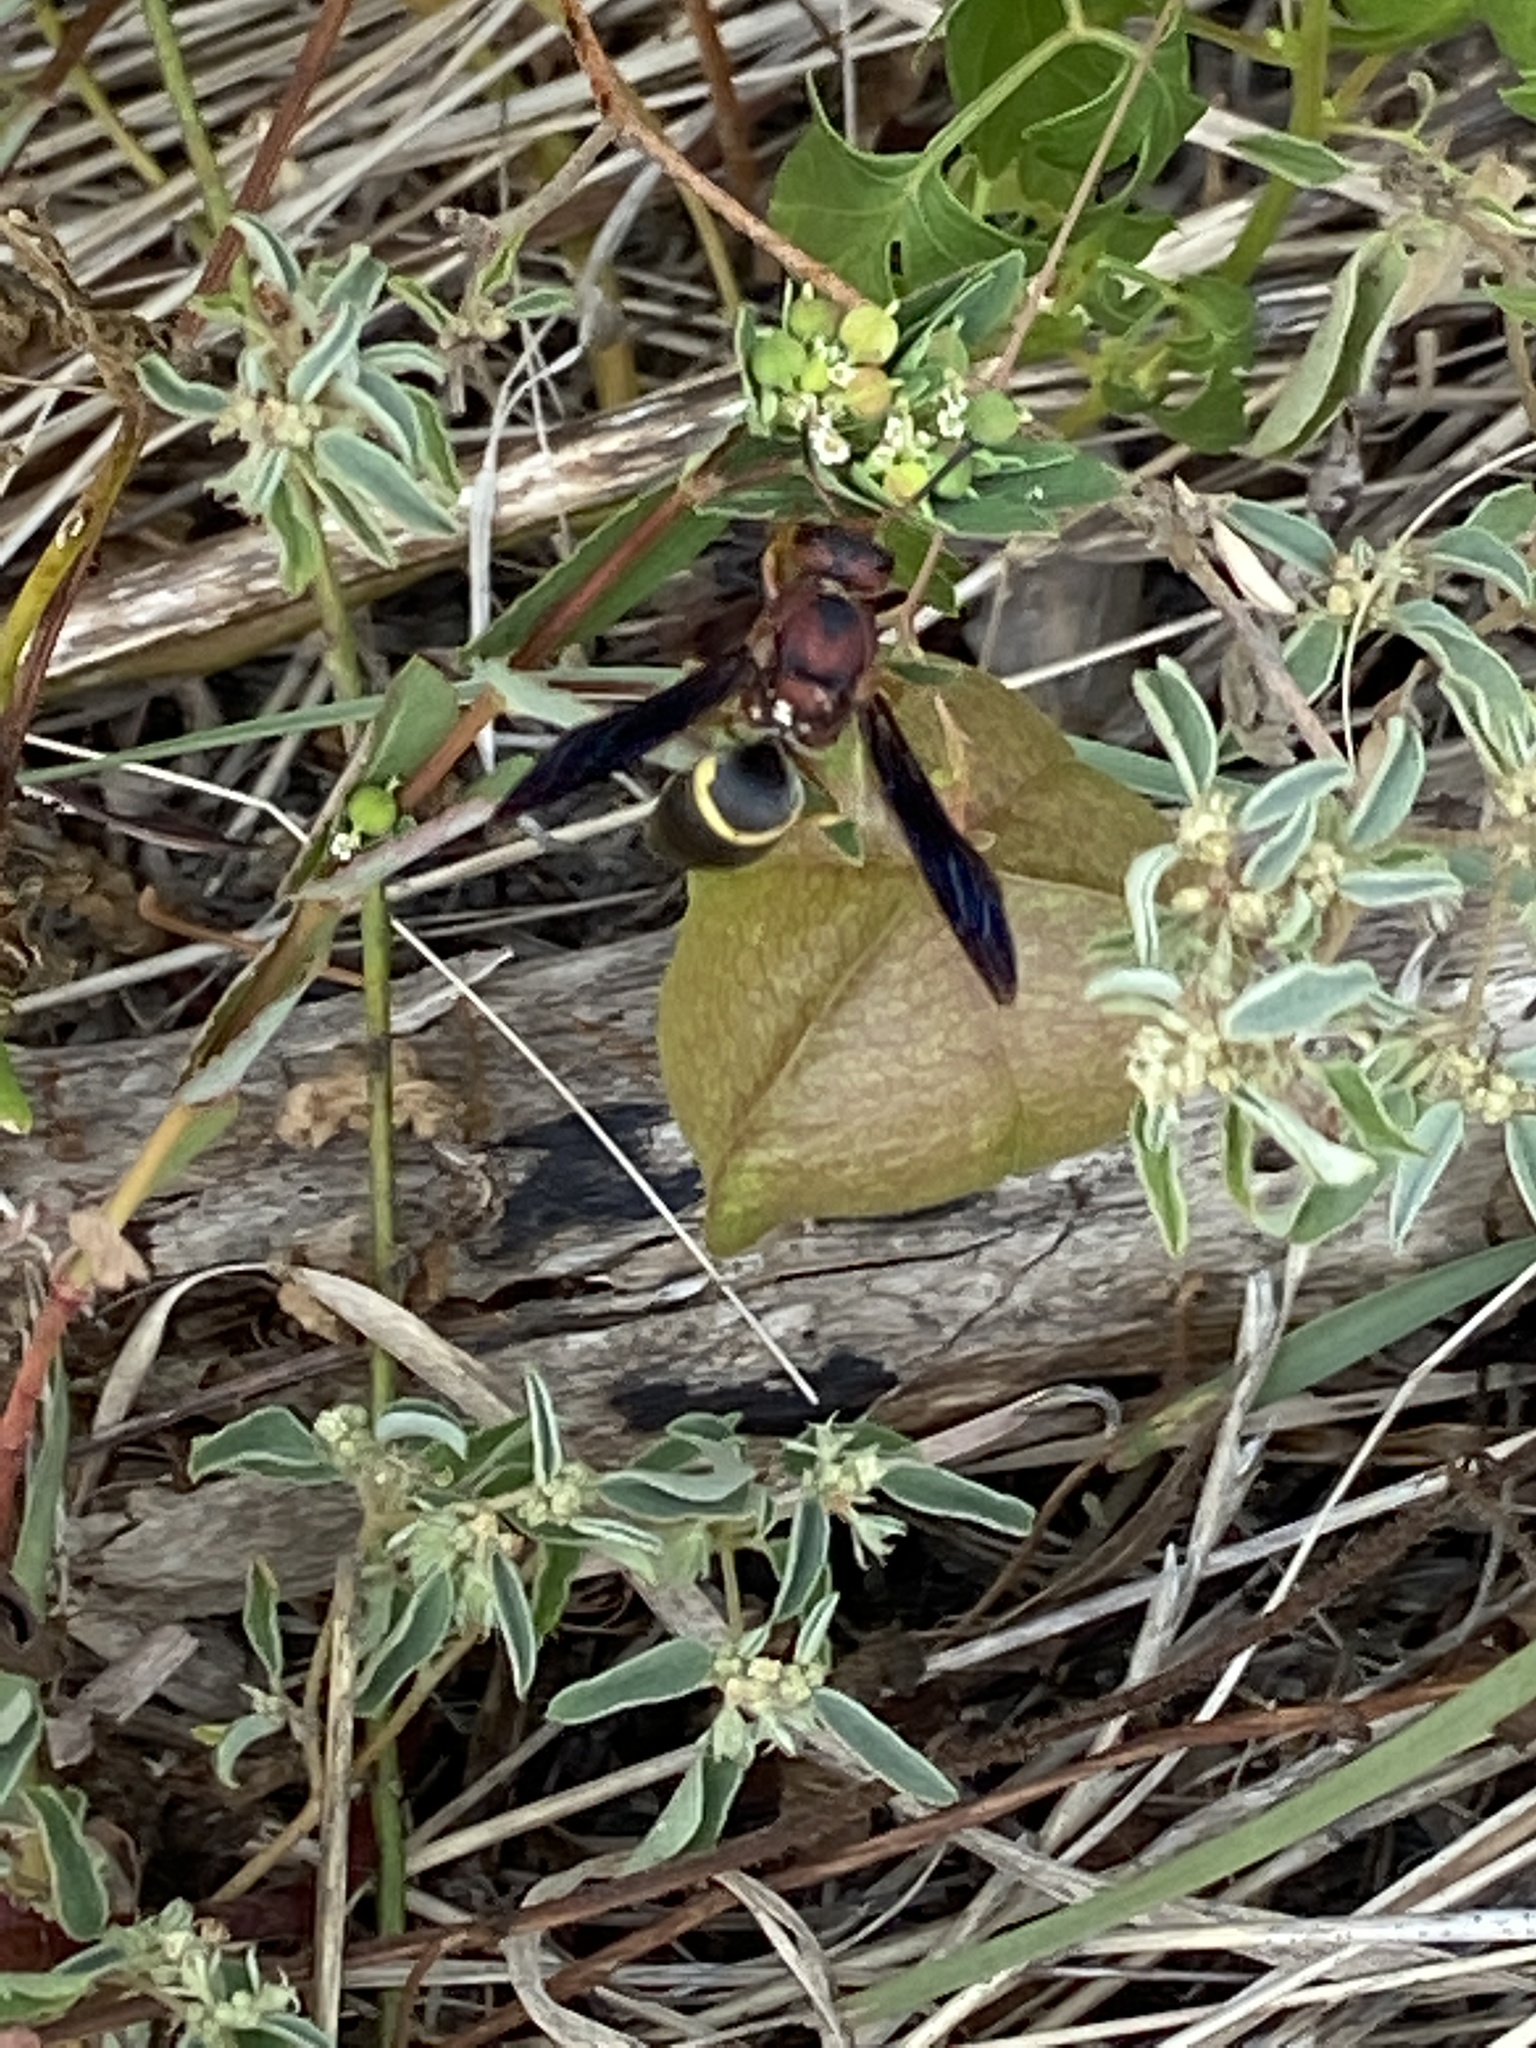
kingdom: Animalia
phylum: Arthropoda
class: Insecta
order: Hymenoptera
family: Eumenidae
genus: Euodynerus
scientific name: Euodynerus crypticus
